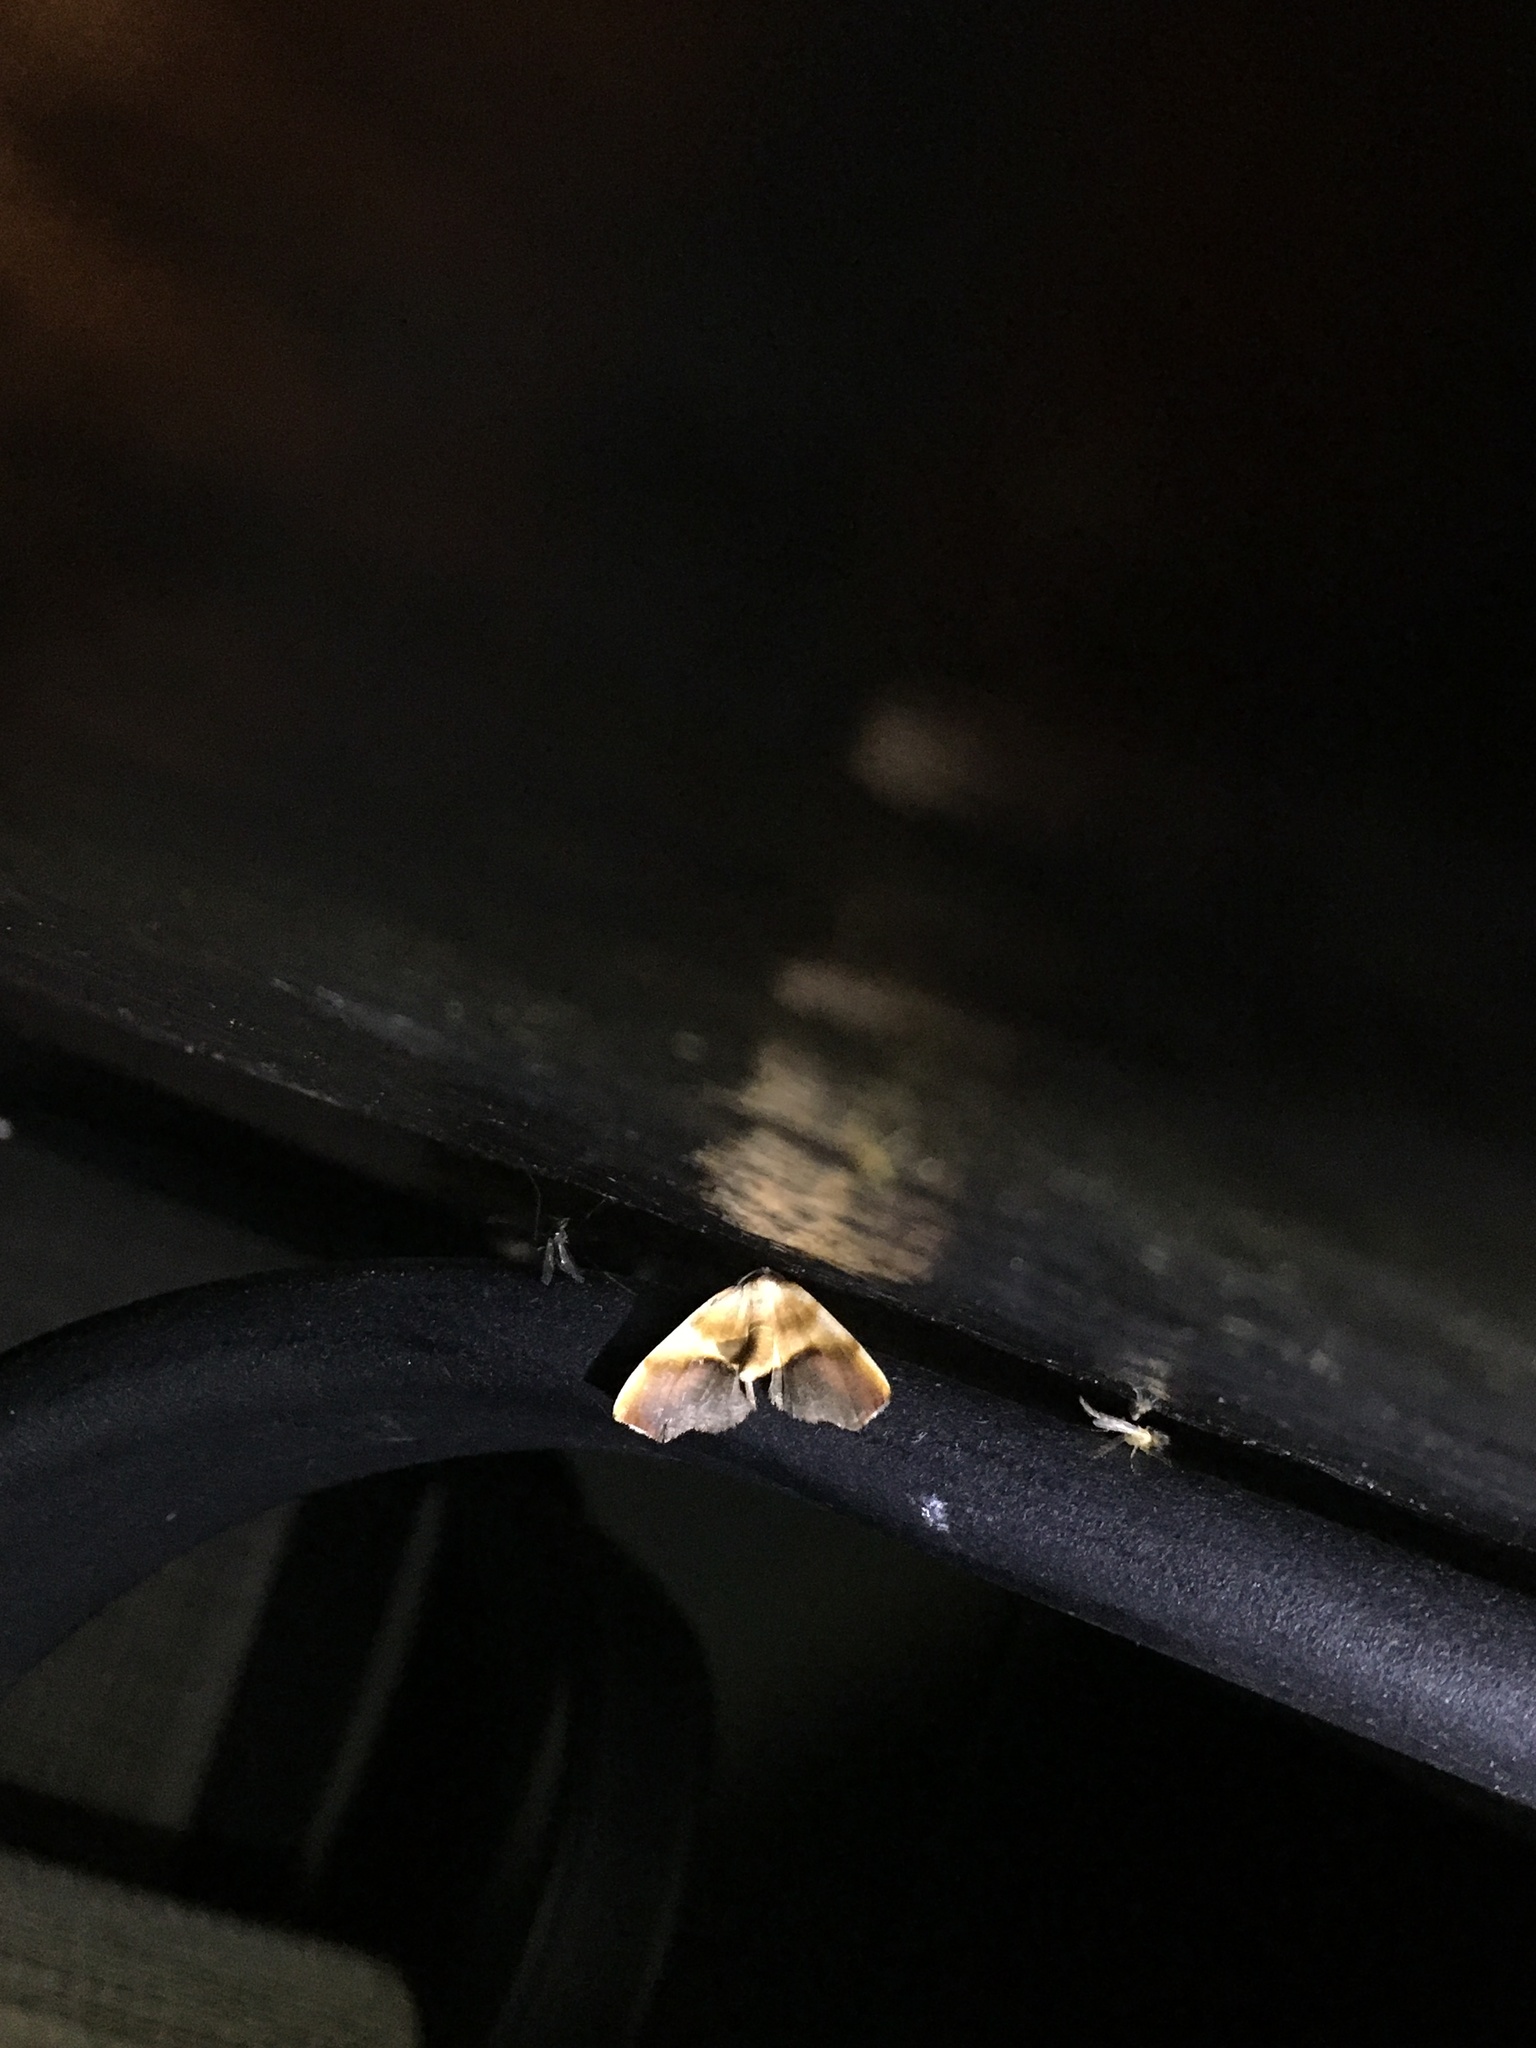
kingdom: Animalia
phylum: Arthropoda
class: Insecta
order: Lepidoptera
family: Geometridae
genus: Plagodis
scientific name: Plagodis kuetzingi
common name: Purple plagodis
